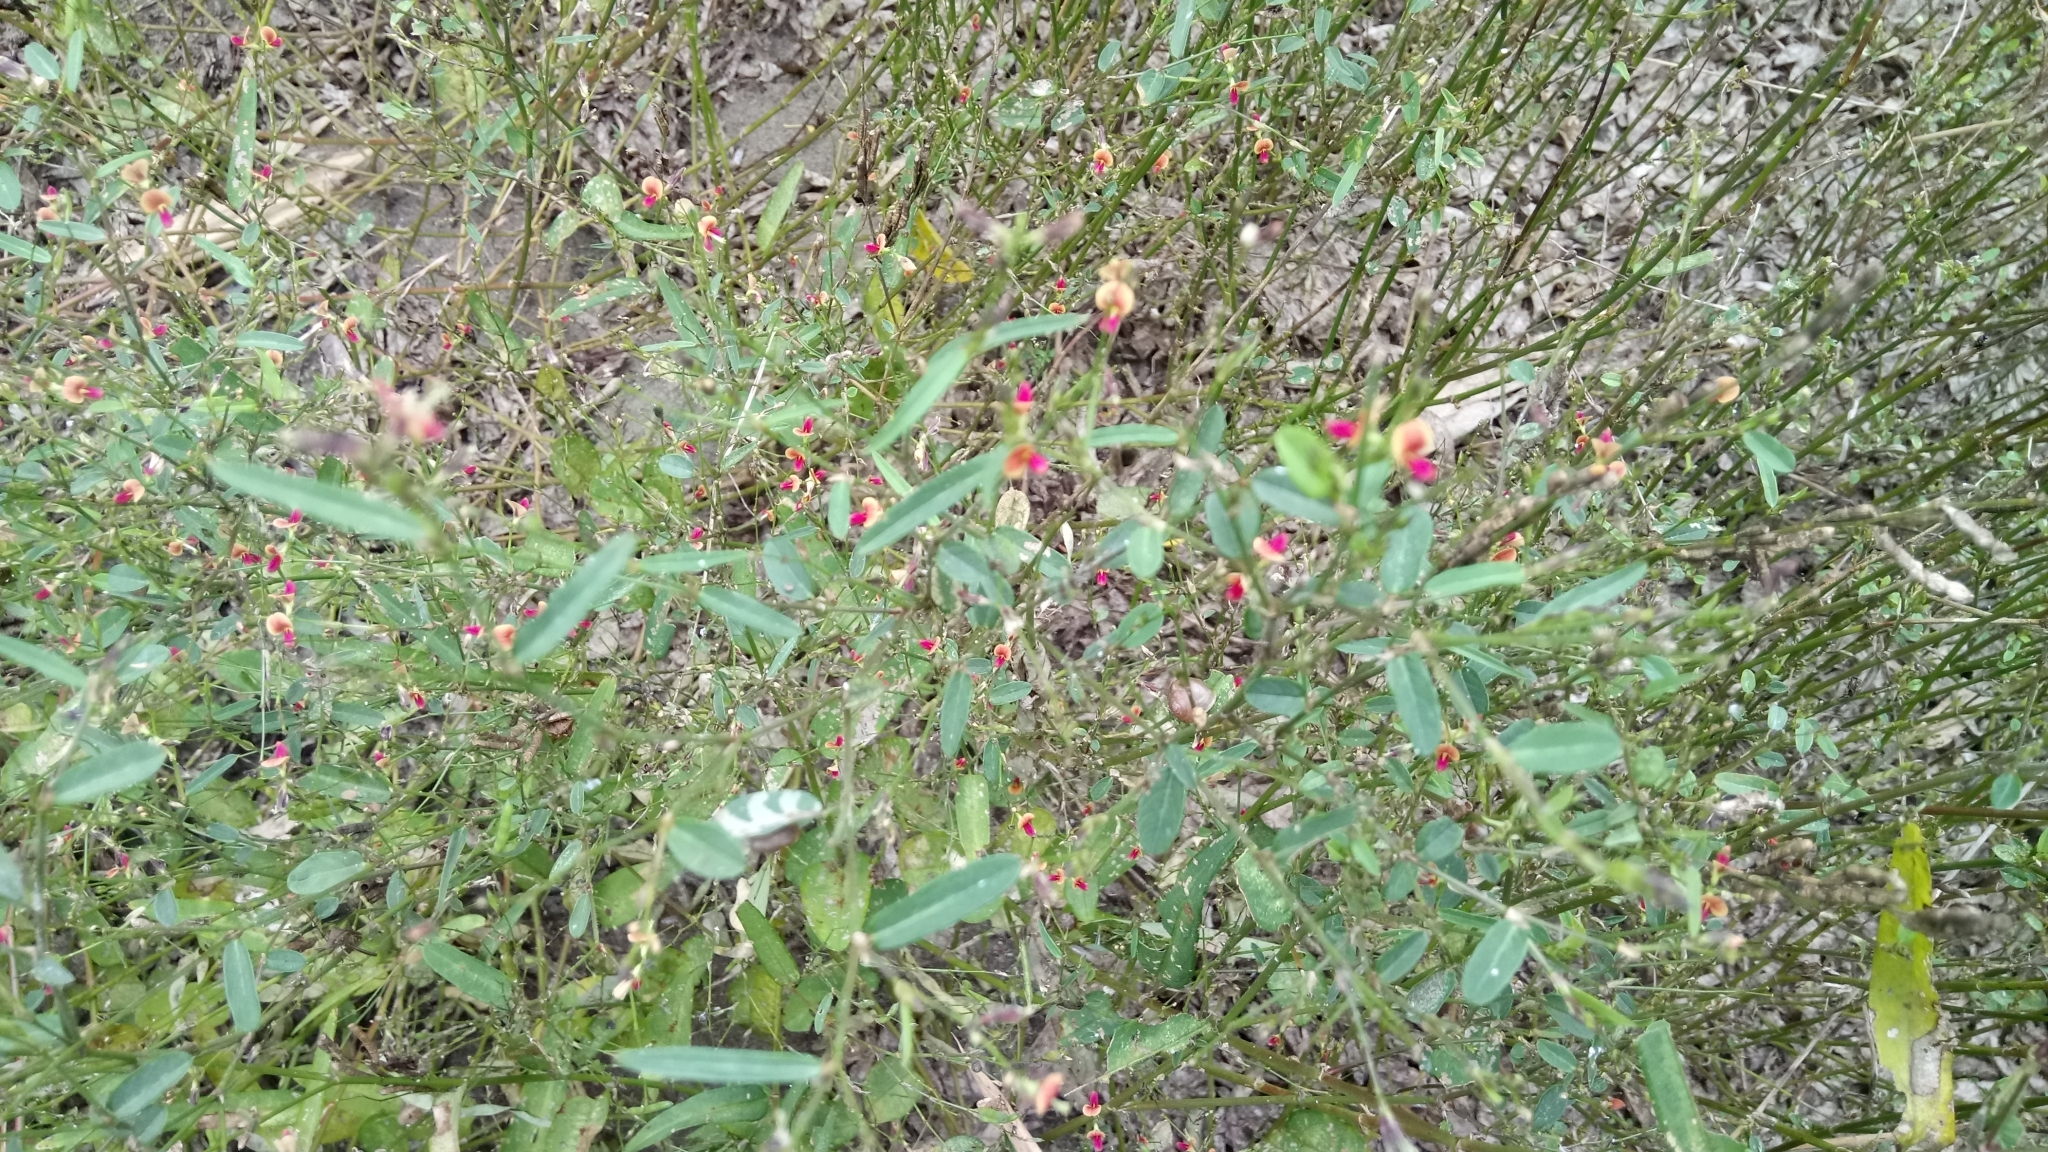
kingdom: Plantae
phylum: Tracheophyta
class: Magnoliopsida
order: Fabales
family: Fabaceae
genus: Alysicarpus
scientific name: Alysicarpus ovalifolius
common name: Alyce clover
